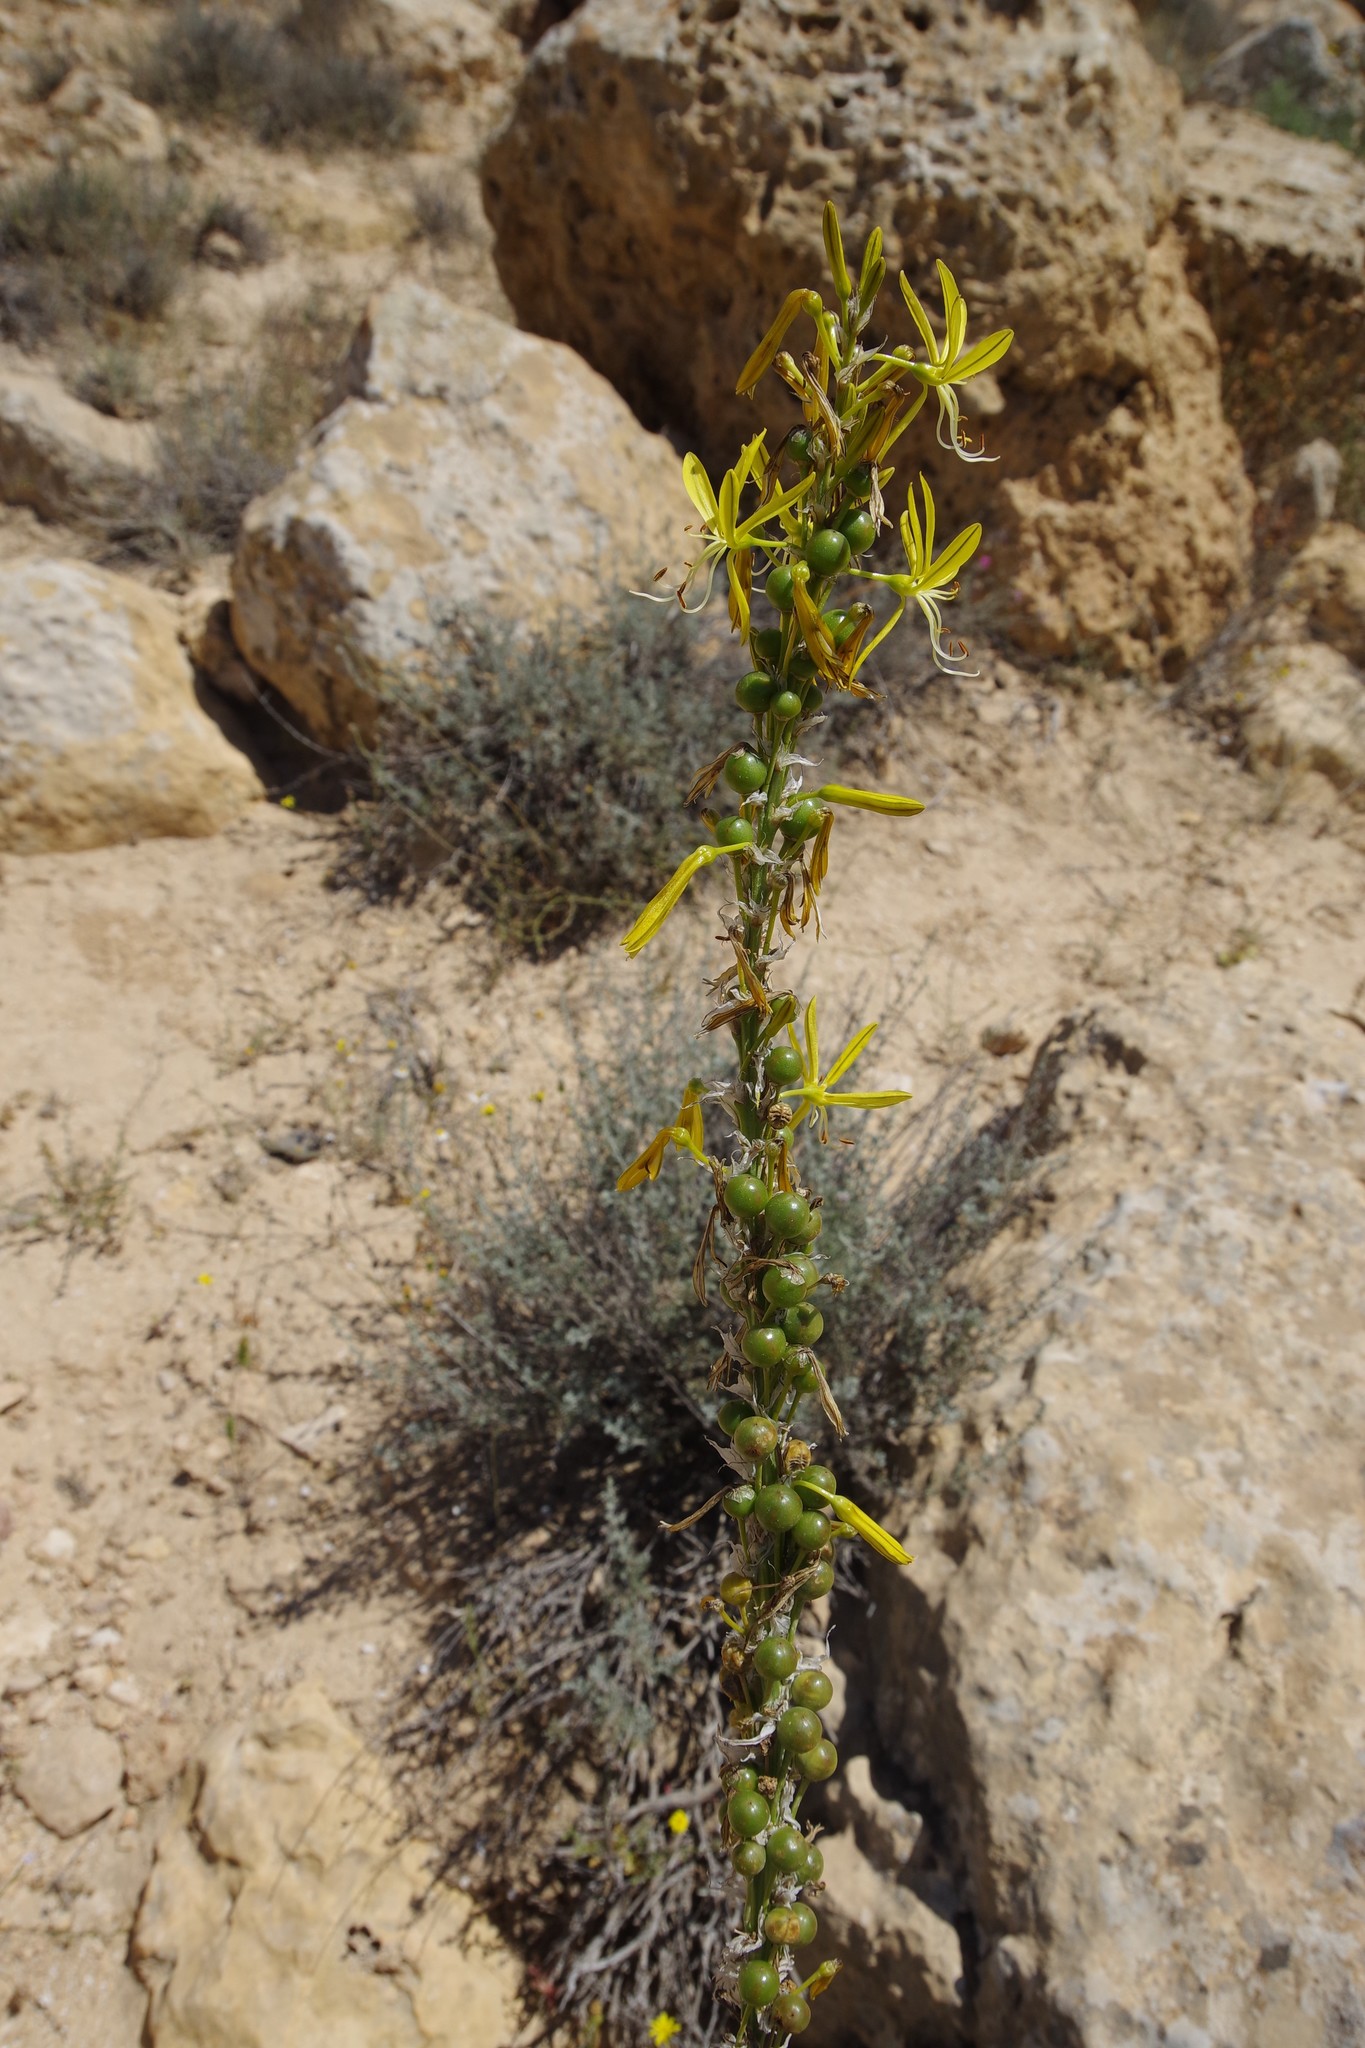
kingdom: Plantae
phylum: Tracheophyta
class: Liliopsida
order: Asparagales
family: Asphodelaceae
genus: Asphodeline
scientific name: Asphodeline lutea
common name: Yellow asphodel
